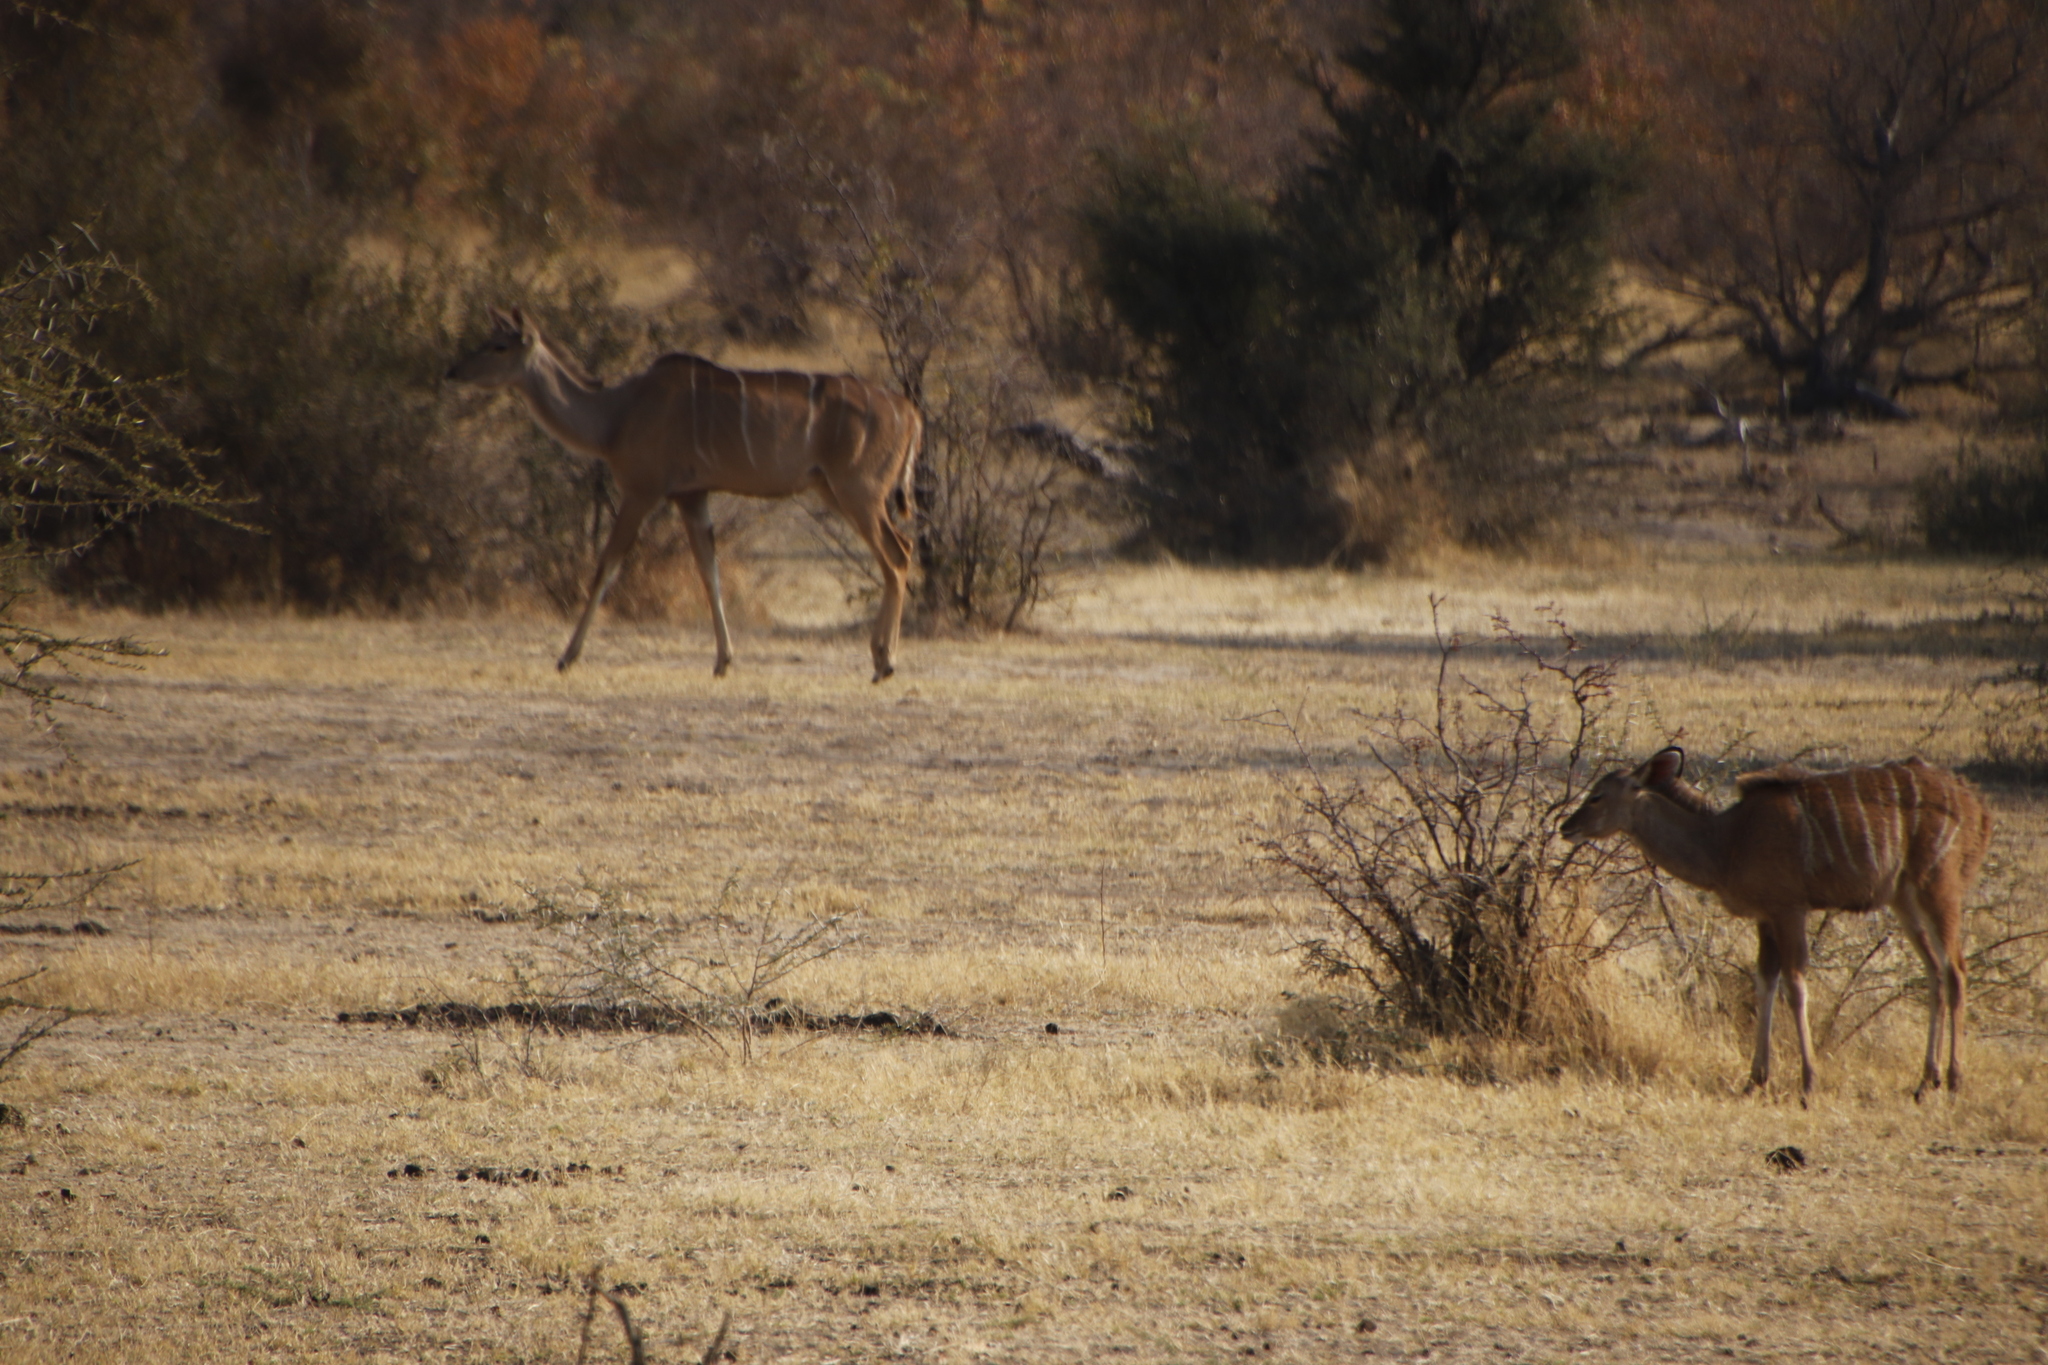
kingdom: Animalia
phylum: Chordata
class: Mammalia
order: Artiodactyla
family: Bovidae
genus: Tragelaphus
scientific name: Tragelaphus strepsiceros
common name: Greater kudu
